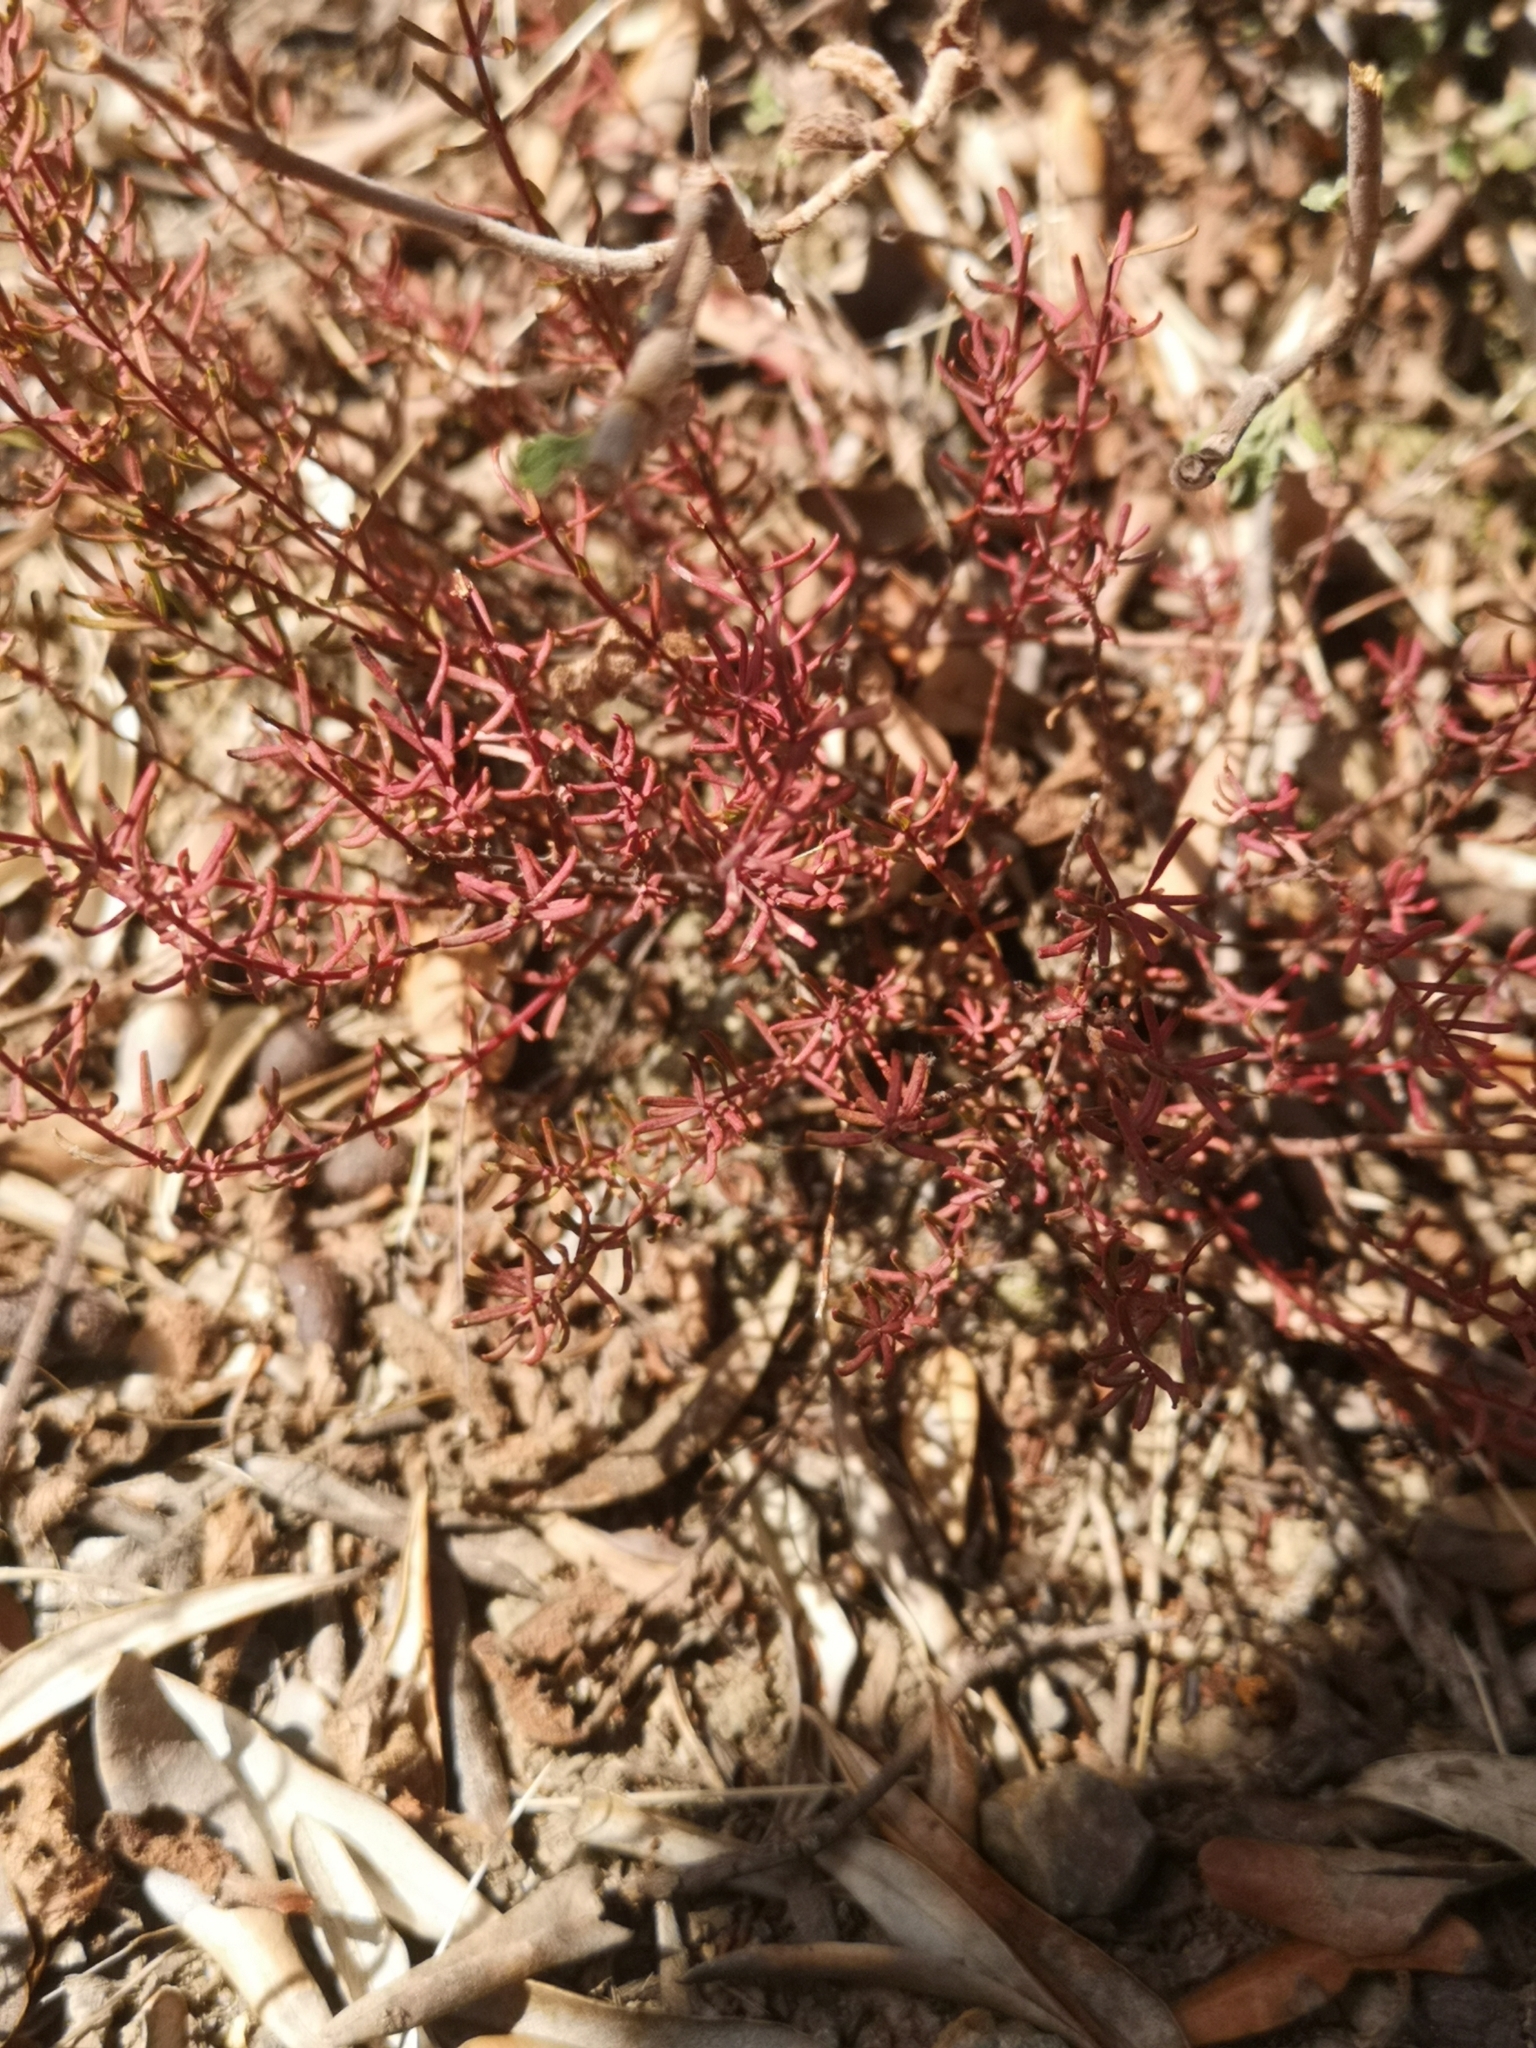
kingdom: Plantae
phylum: Tracheophyta
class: Magnoliopsida
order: Malpighiales
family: Hypericaceae
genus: Hypericum
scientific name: Hypericum empetrifolium
